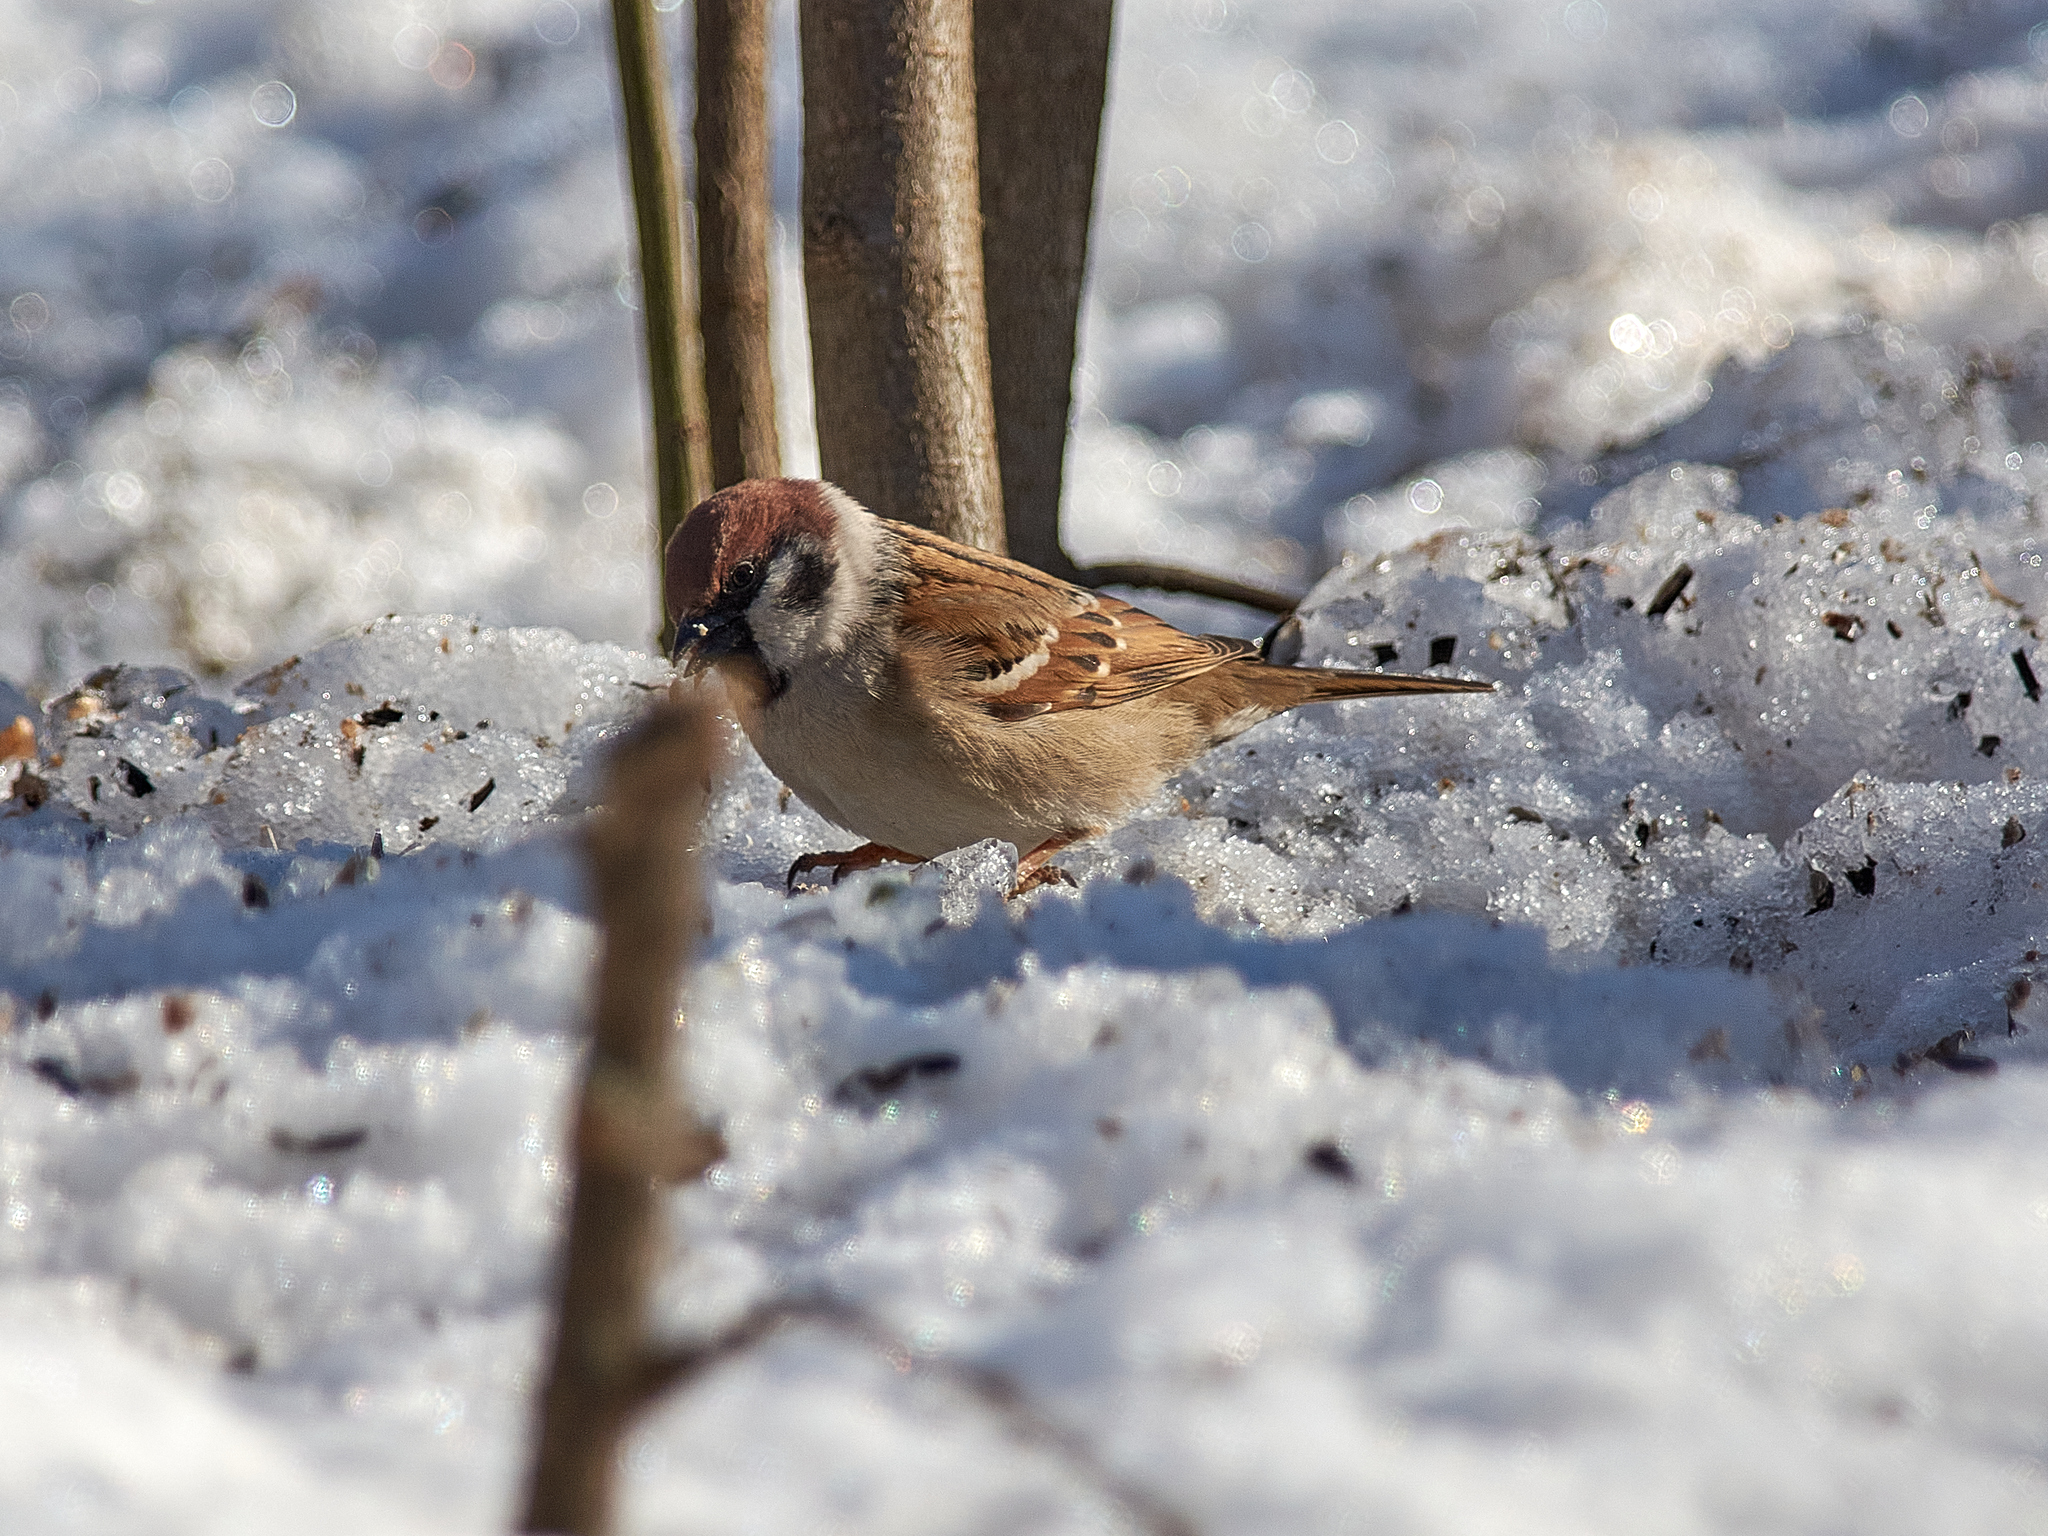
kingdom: Animalia
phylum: Chordata
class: Aves
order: Passeriformes
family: Passeridae
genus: Passer
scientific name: Passer montanus
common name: Eurasian tree sparrow
